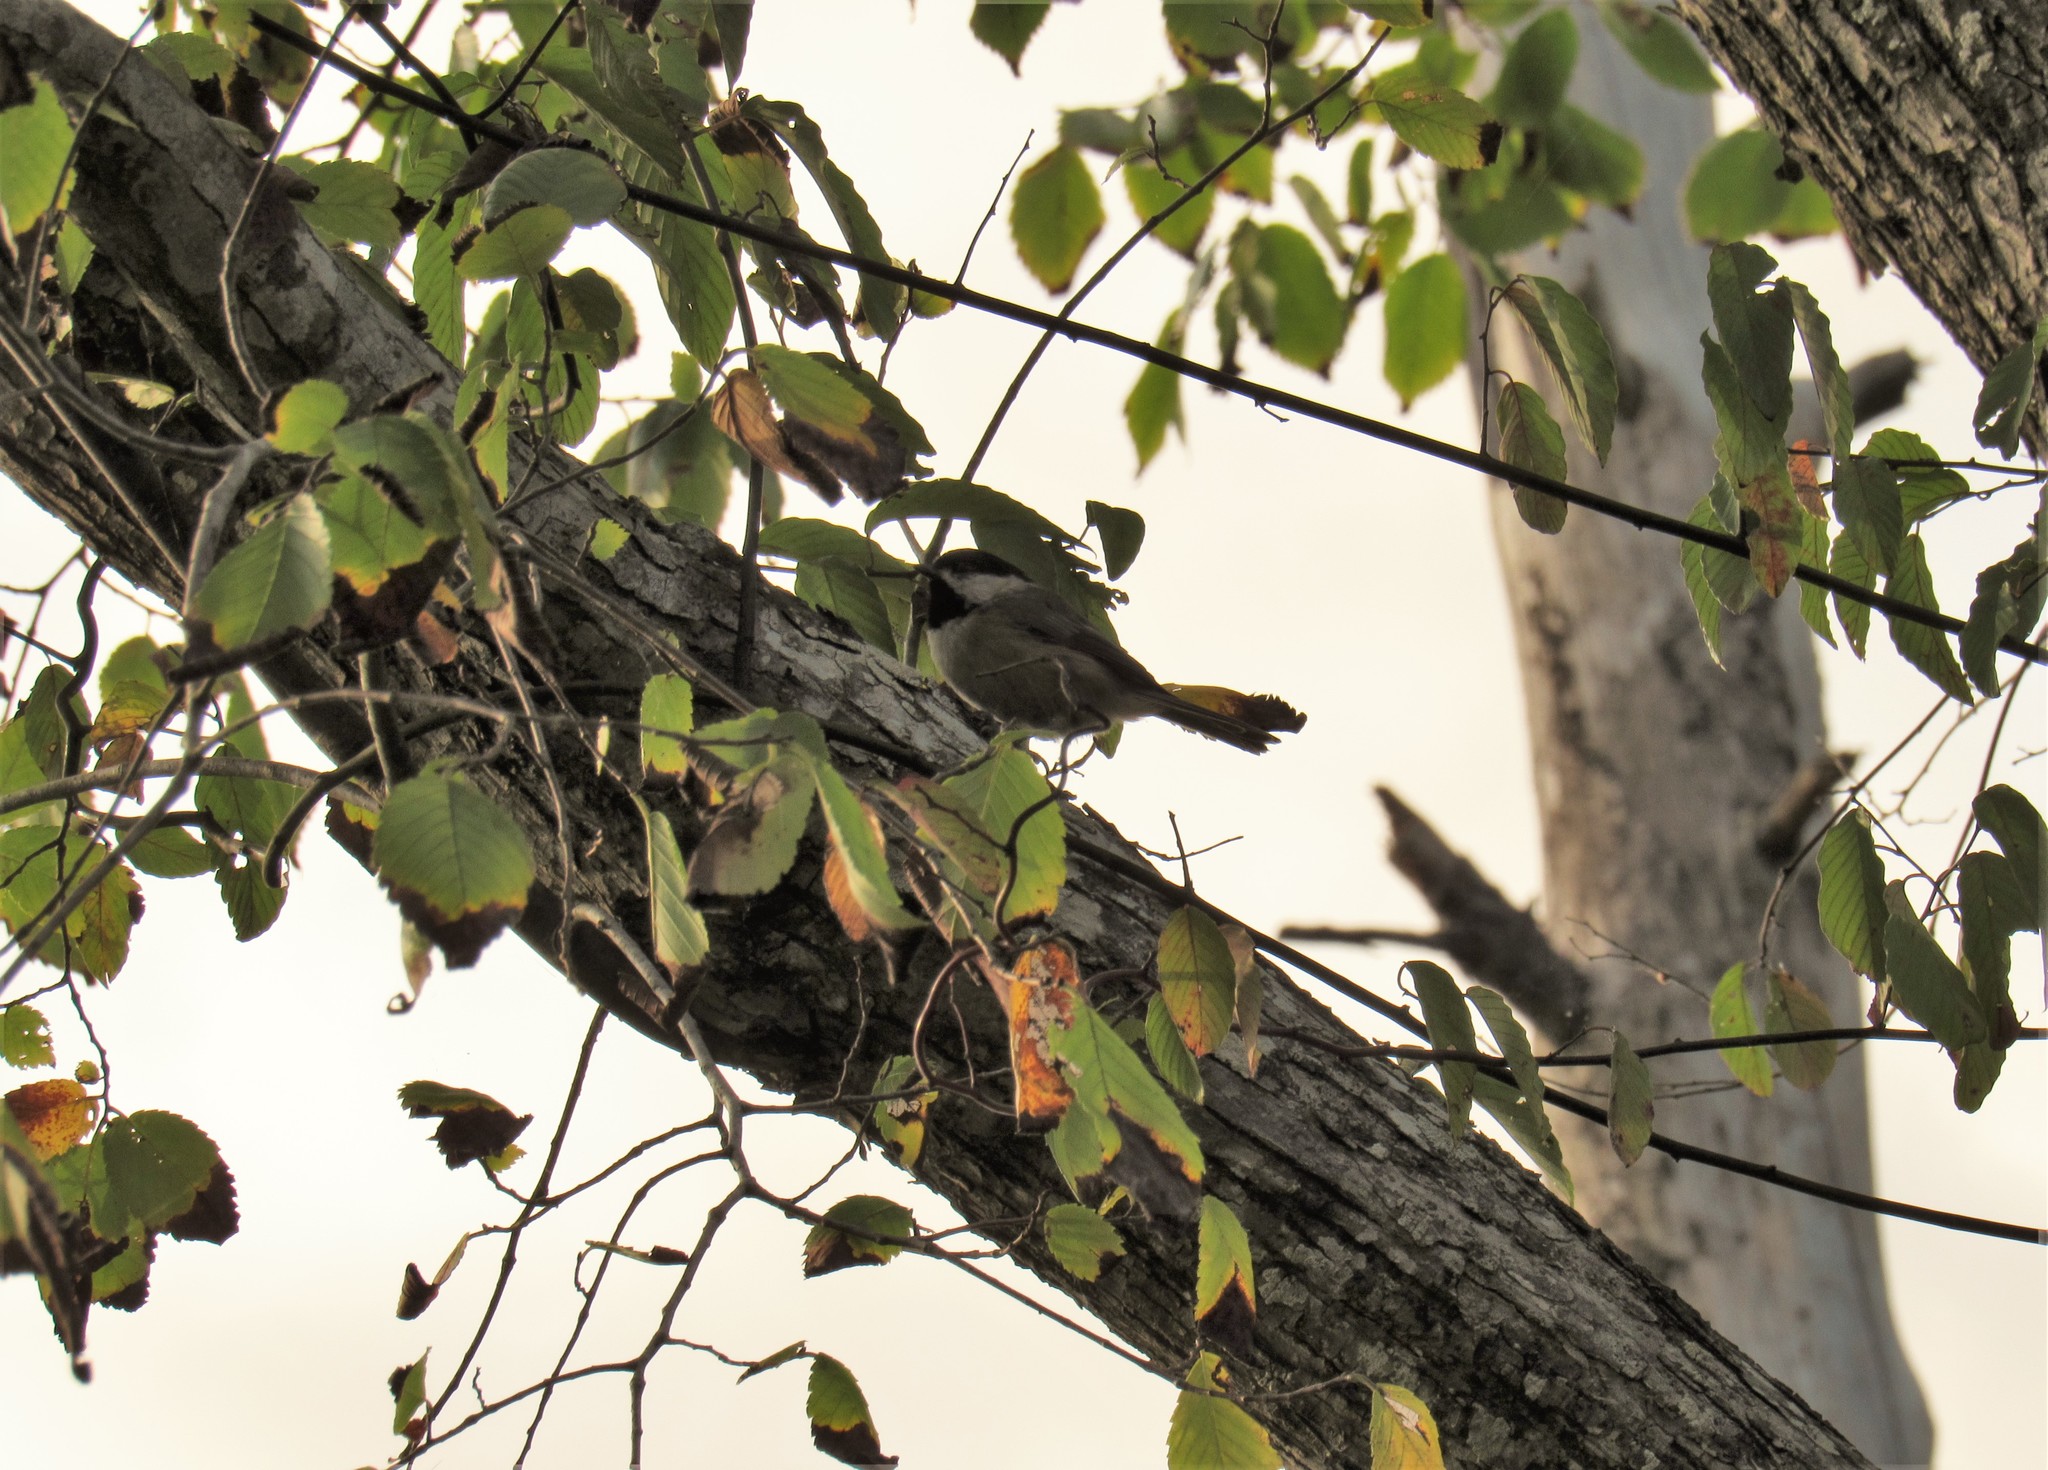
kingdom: Animalia
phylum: Chordata
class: Aves
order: Passeriformes
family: Paridae
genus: Poecile
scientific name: Poecile carolinensis
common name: Carolina chickadee
